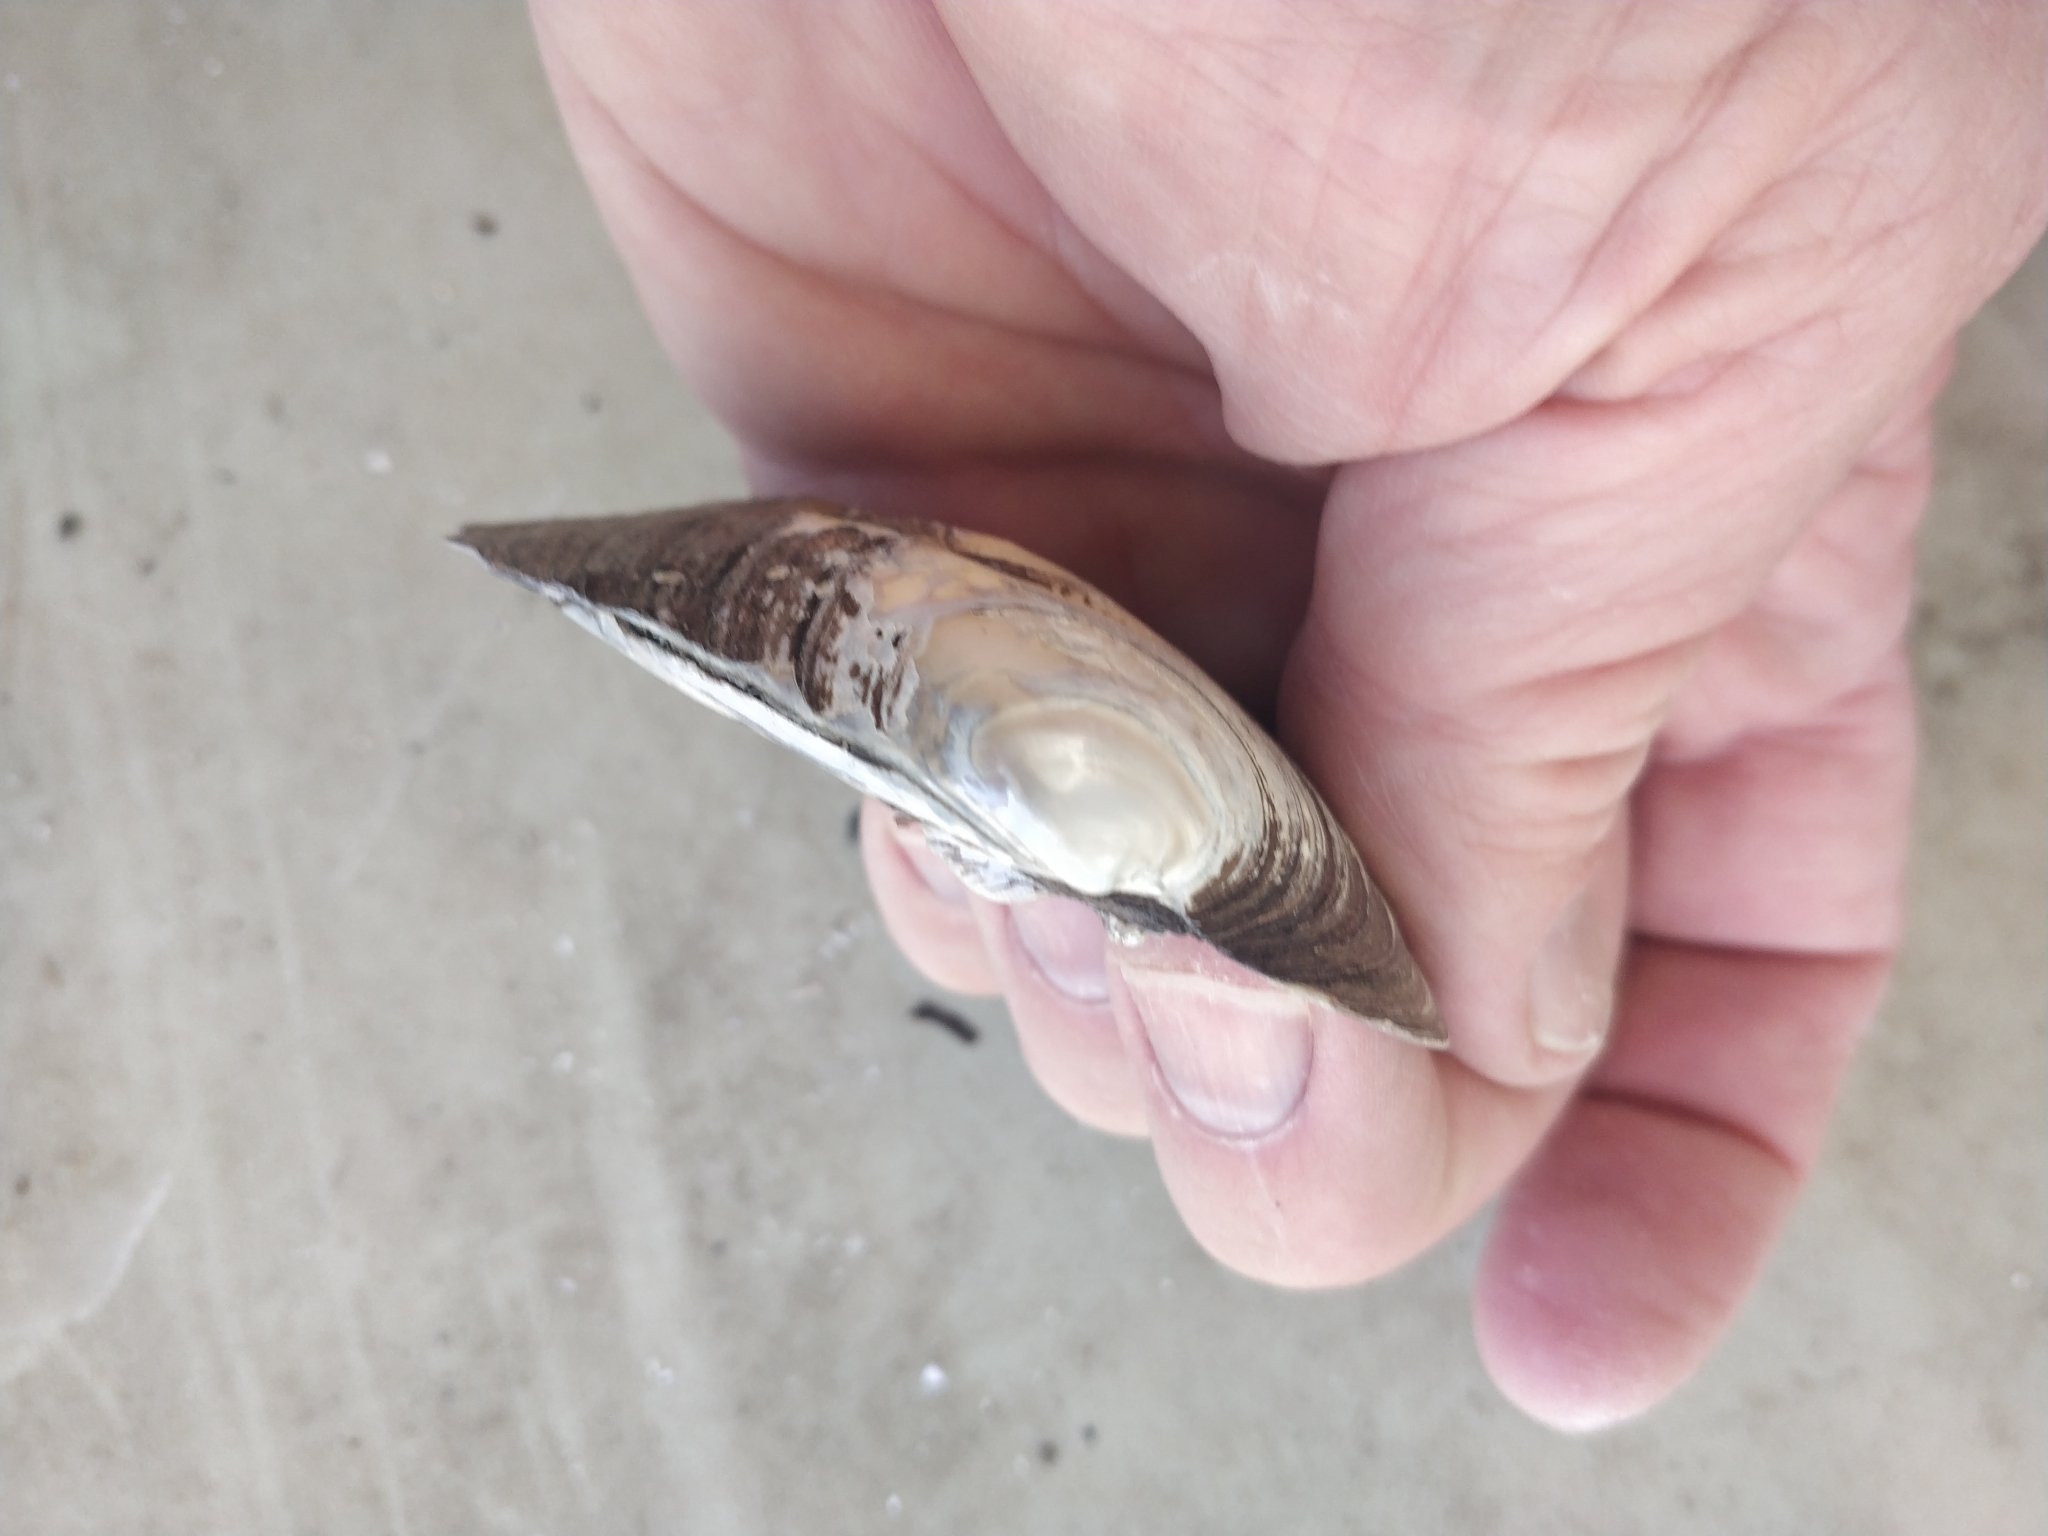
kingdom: Animalia
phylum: Mollusca
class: Bivalvia
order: Unionida
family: Unionidae
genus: Amblema
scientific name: Amblema plicata
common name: Threeridge
